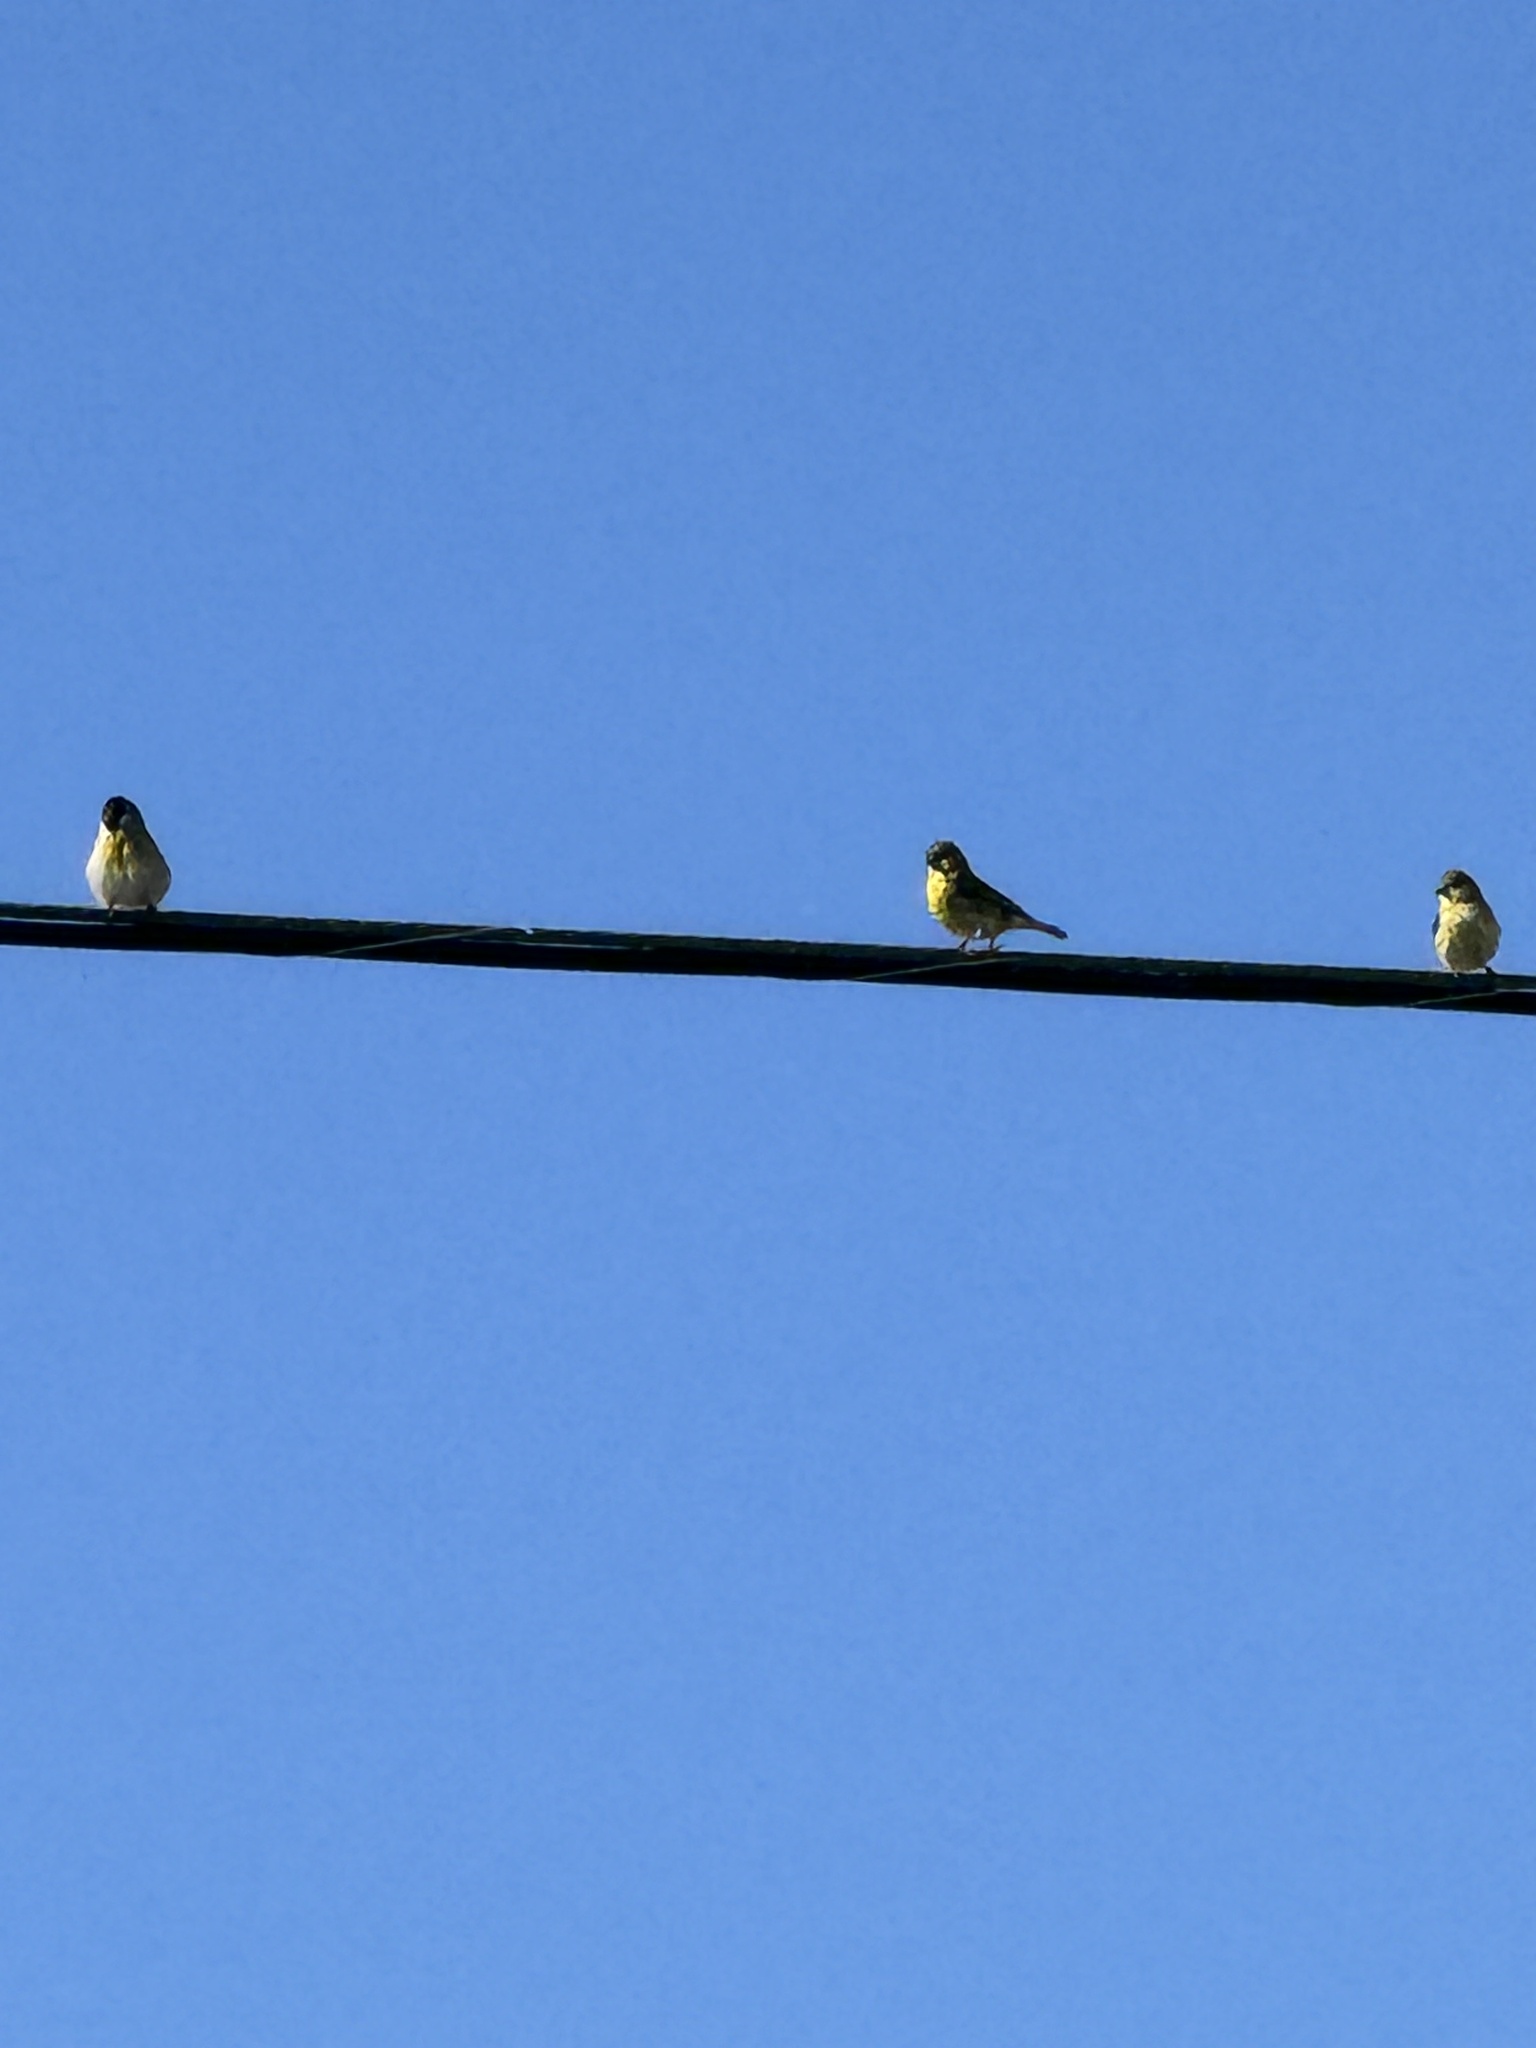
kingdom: Animalia
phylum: Chordata
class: Aves
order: Passeriformes
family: Fringillidae
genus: Spinus
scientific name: Spinus psaltria
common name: Lesser goldfinch
